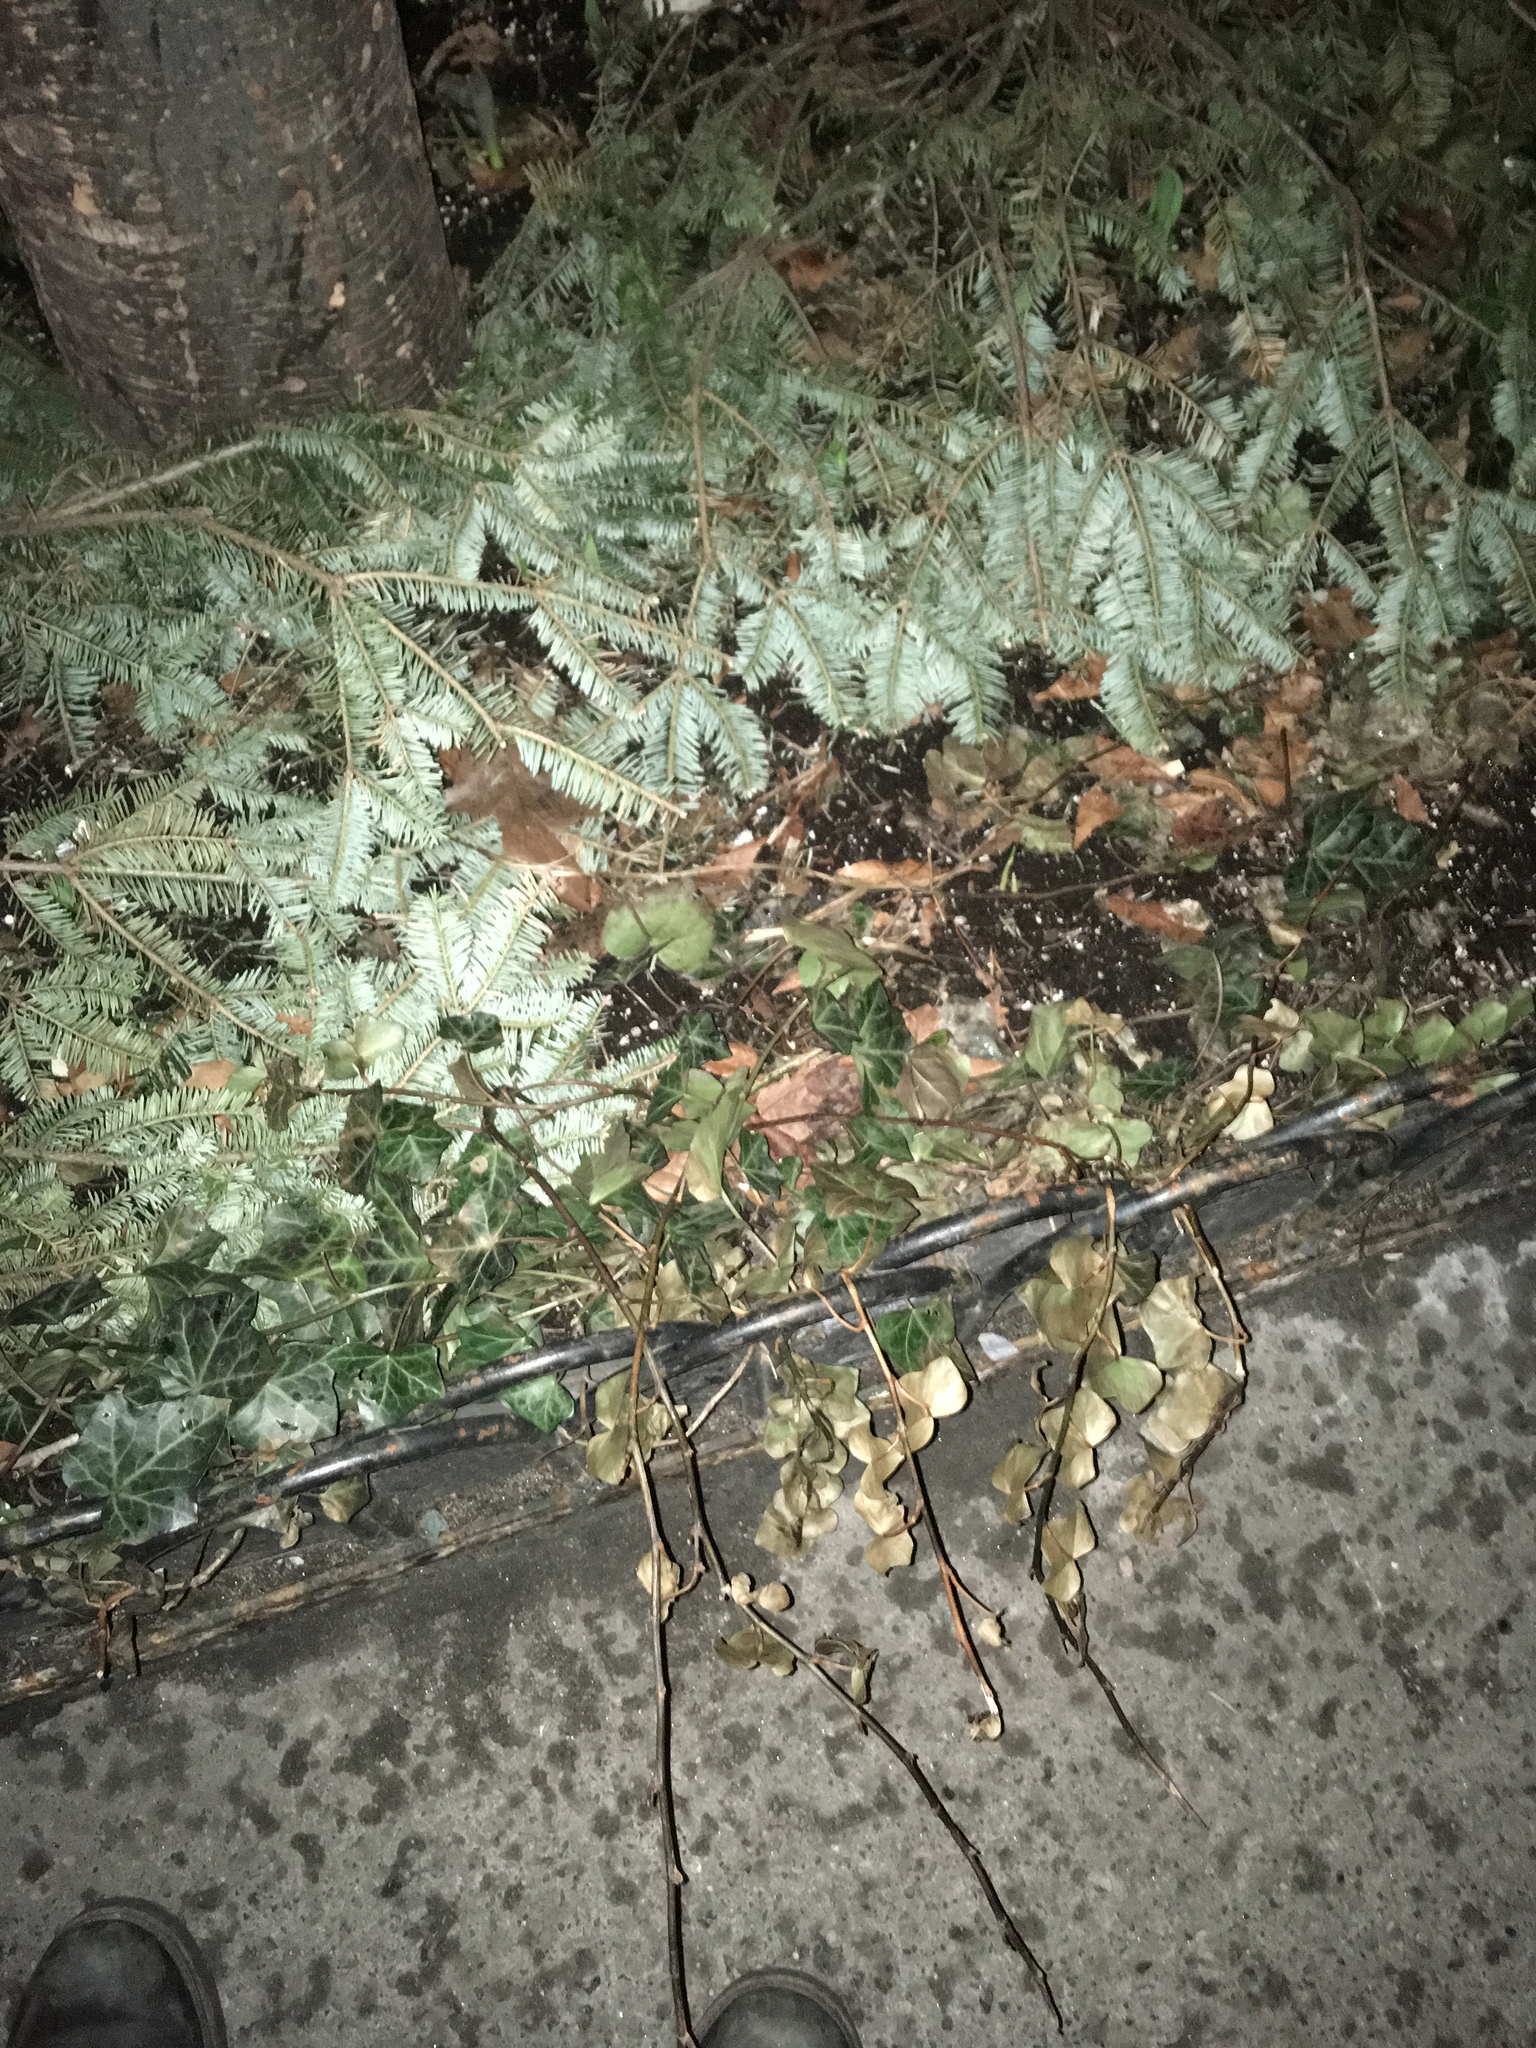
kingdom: Plantae
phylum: Tracheophyta
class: Magnoliopsida
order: Apiales
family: Araliaceae
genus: Hedera
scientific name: Hedera helix
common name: Ivy
